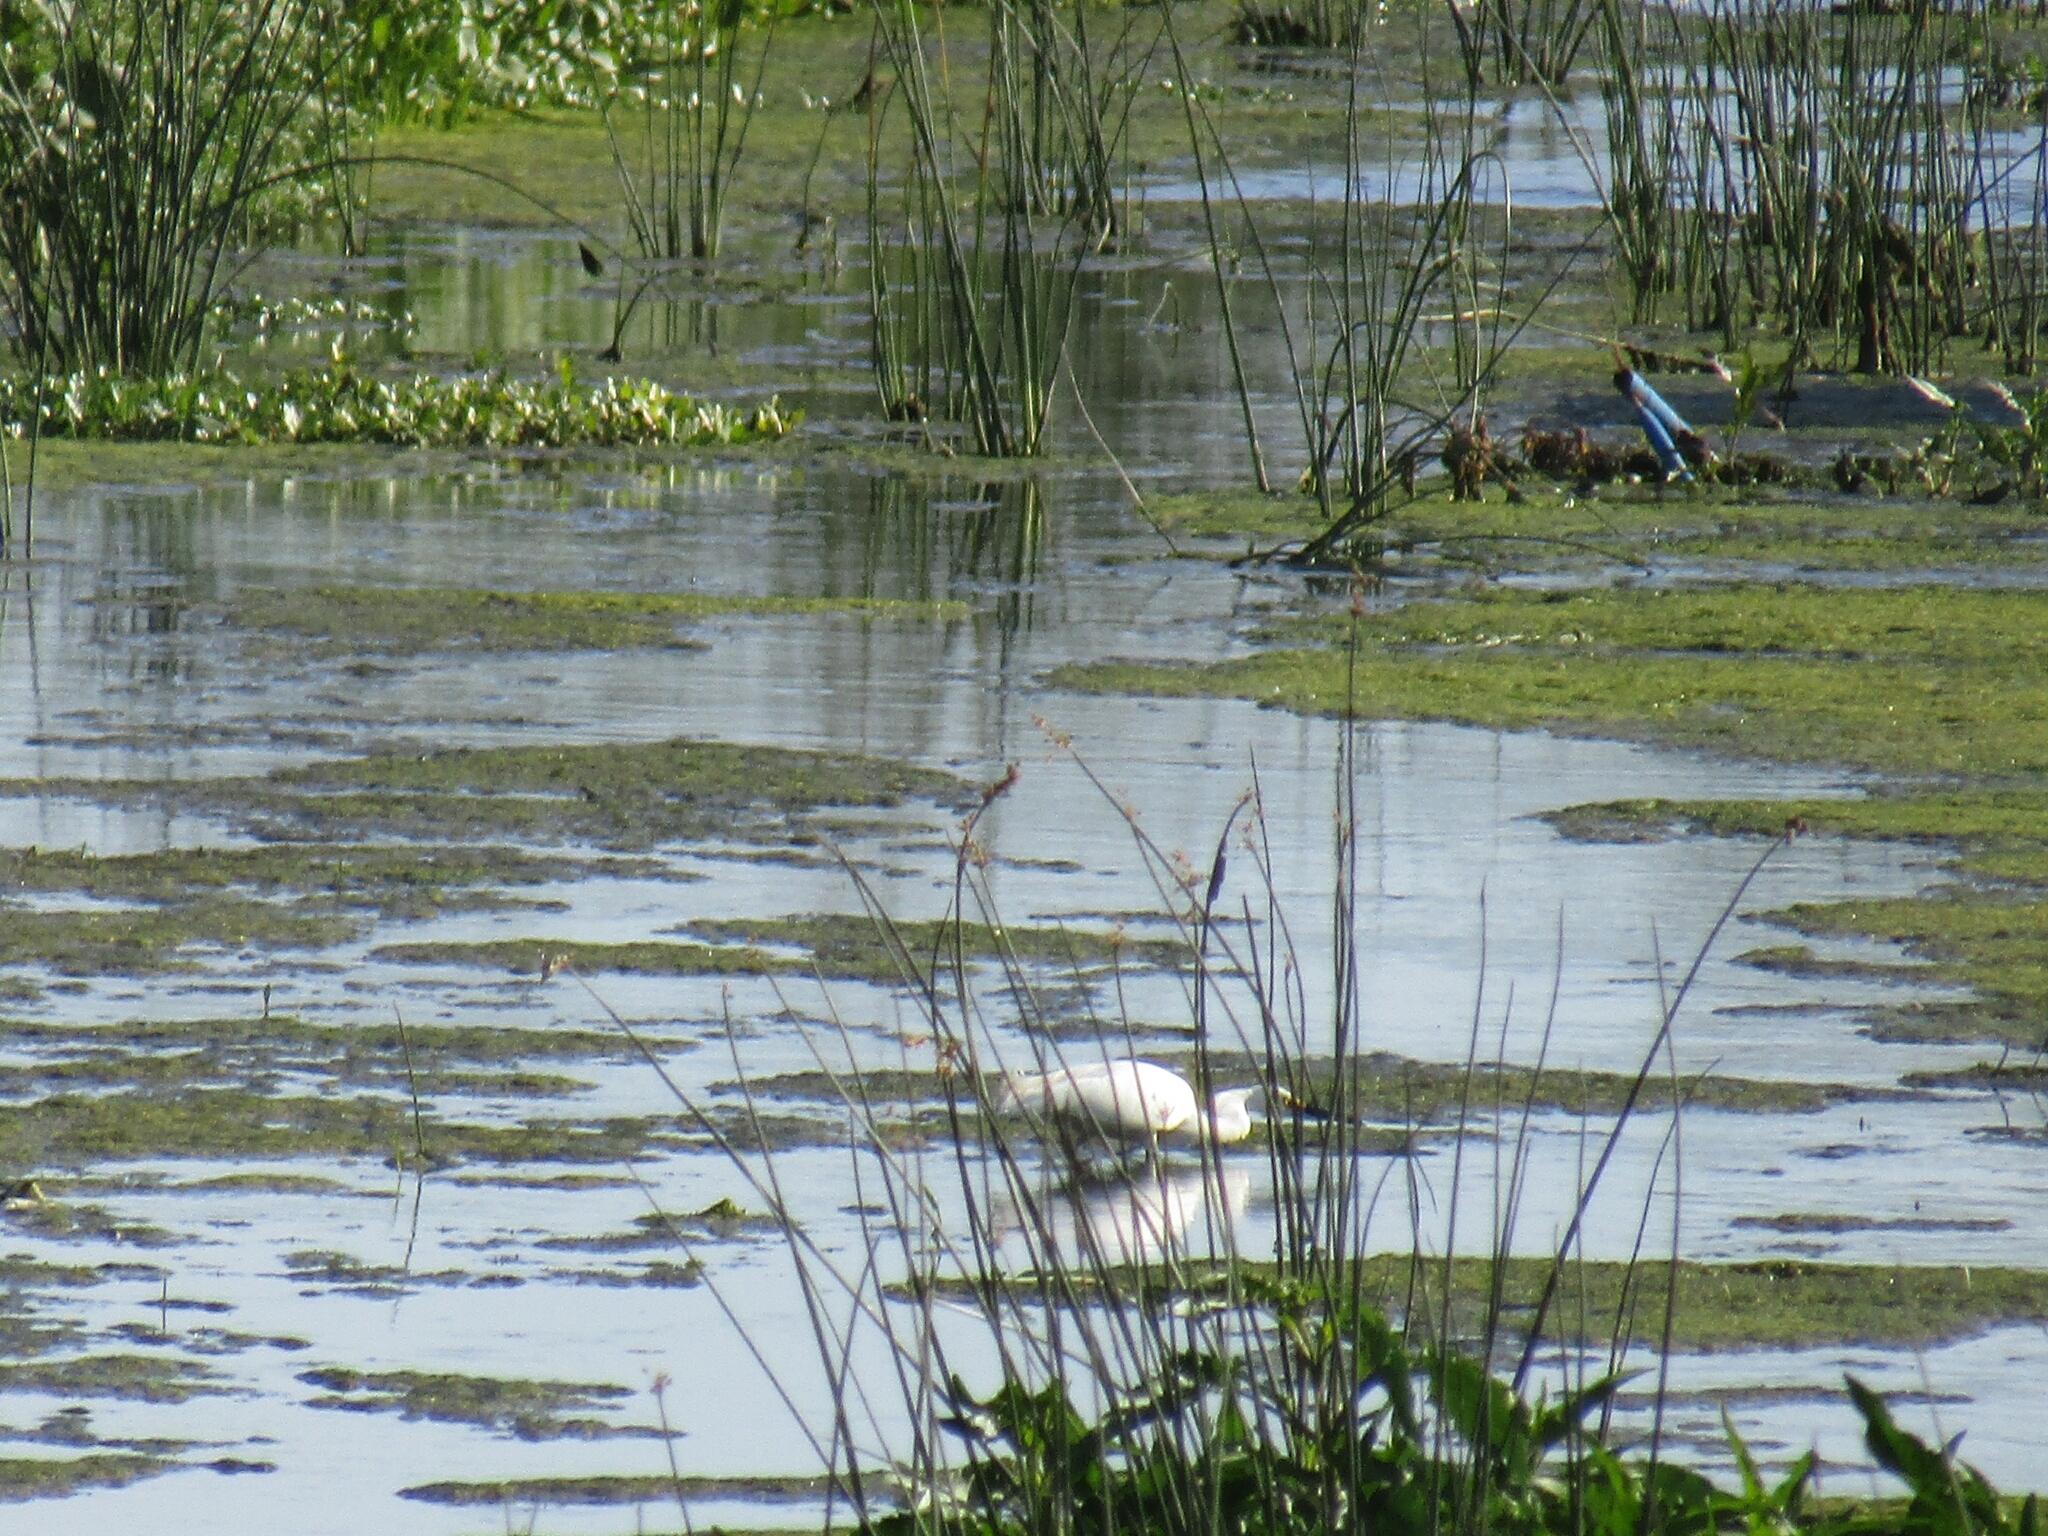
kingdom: Animalia
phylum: Chordata
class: Aves
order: Pelecaniformes
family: Ardeidae
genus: Egretta
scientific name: Egretta thula
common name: Snowy egret
